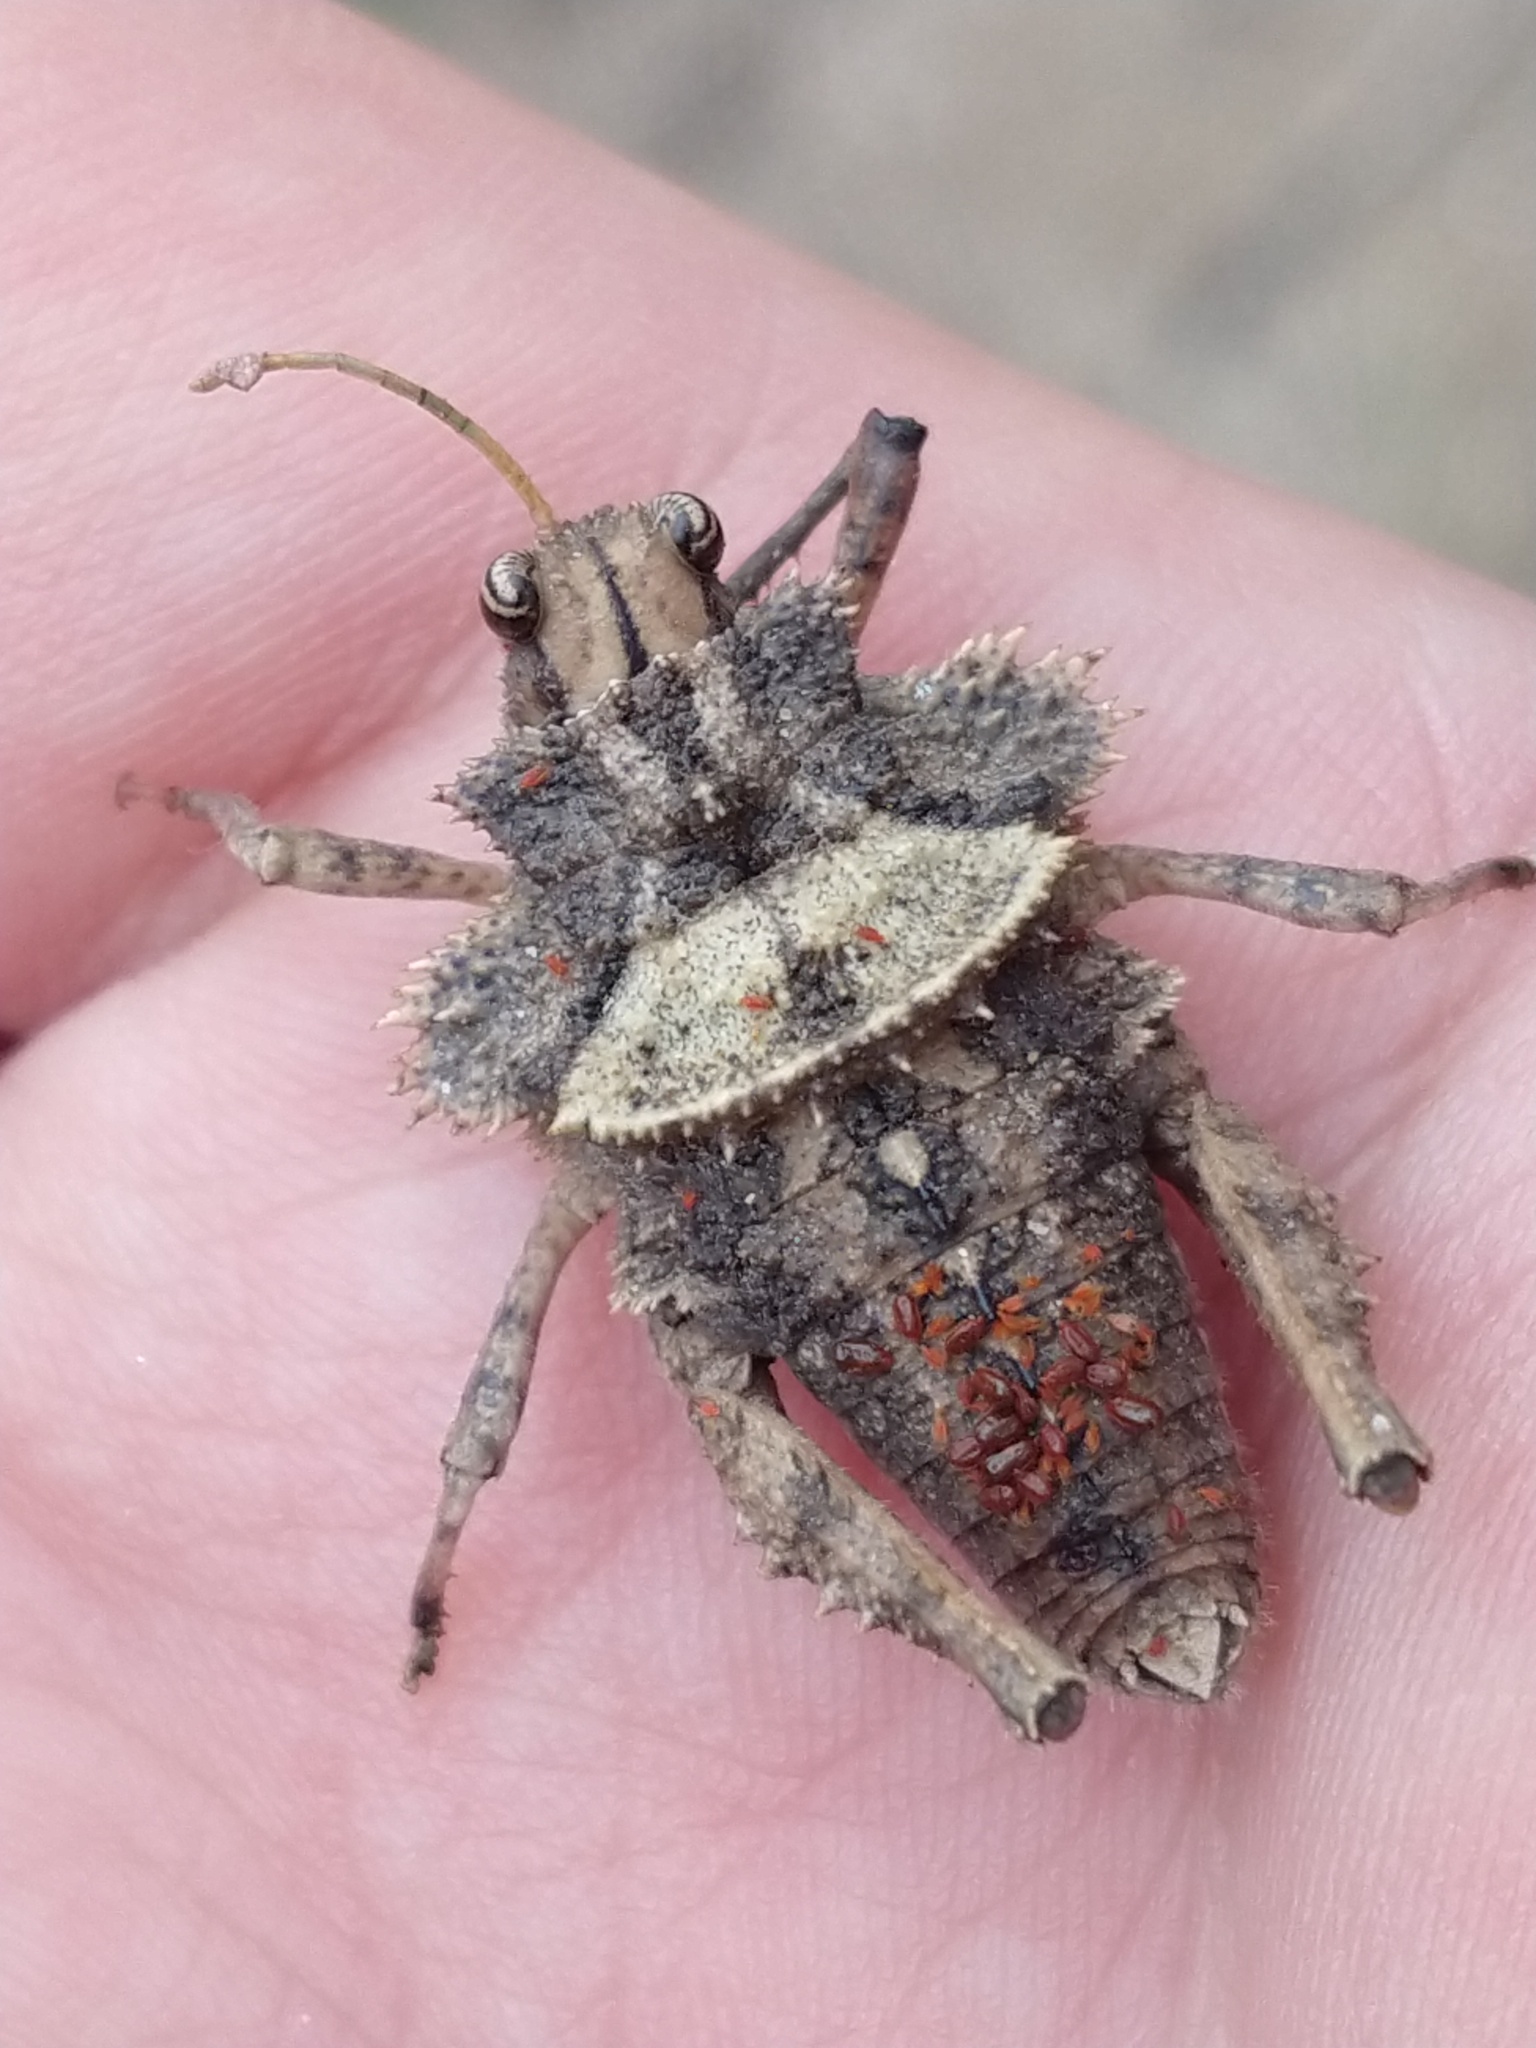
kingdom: Animalia
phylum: Arthropoda
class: Insecta
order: Orthoptera
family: Ommexechidae
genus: Graea
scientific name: Graea horrida
